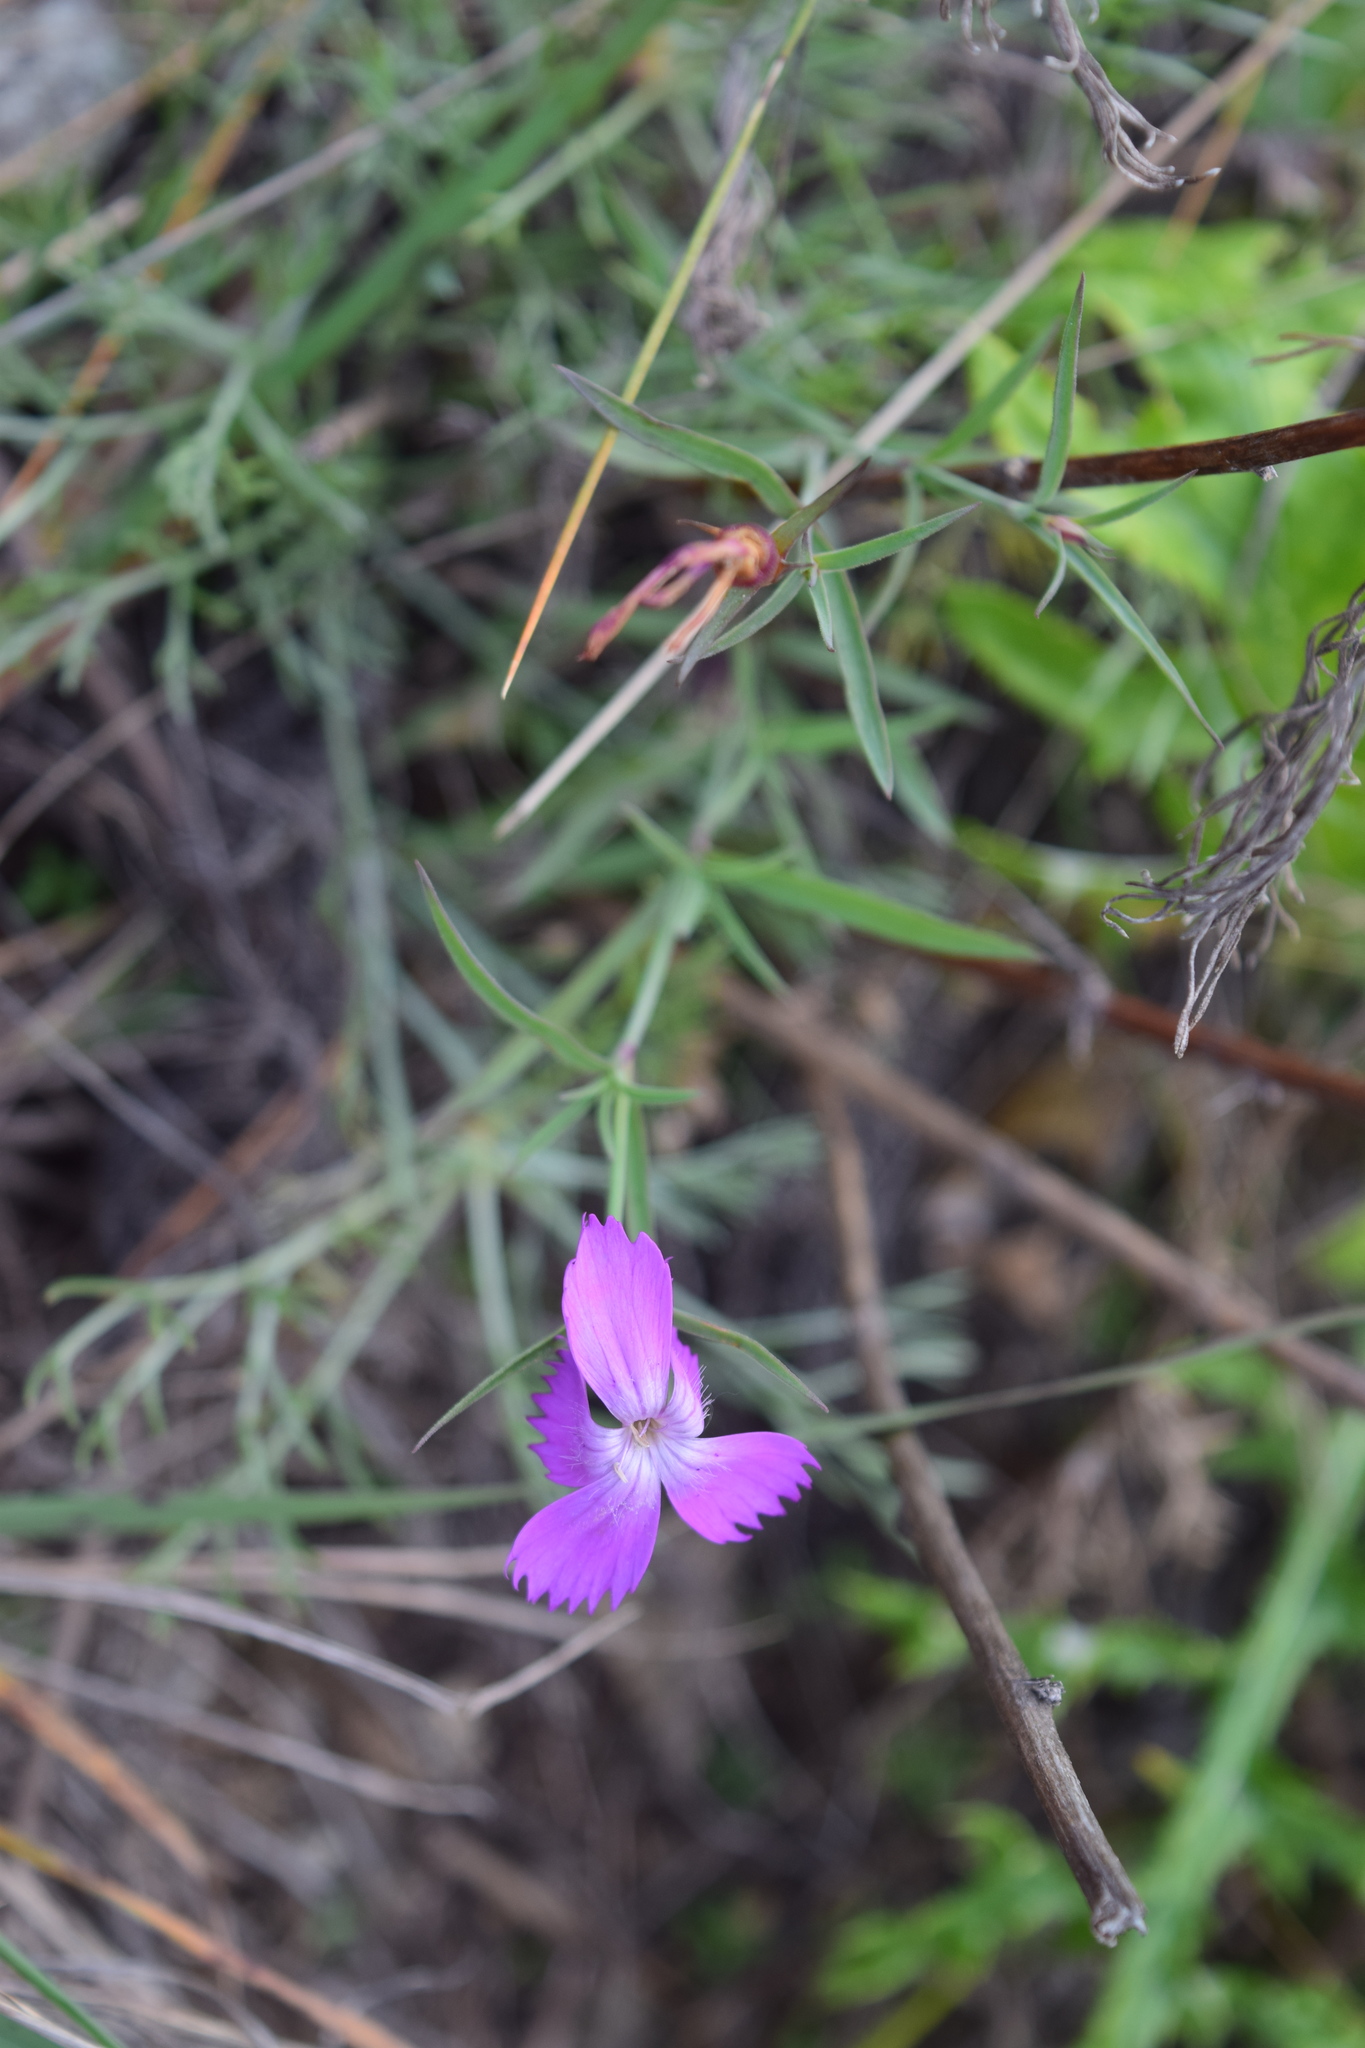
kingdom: Plantae
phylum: Tracheophyta
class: Magnoliopsida
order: Caryophyllales
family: Caryophyllaceae
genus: Dianthus
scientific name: Dianthus chinensis
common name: Rainbow pink
